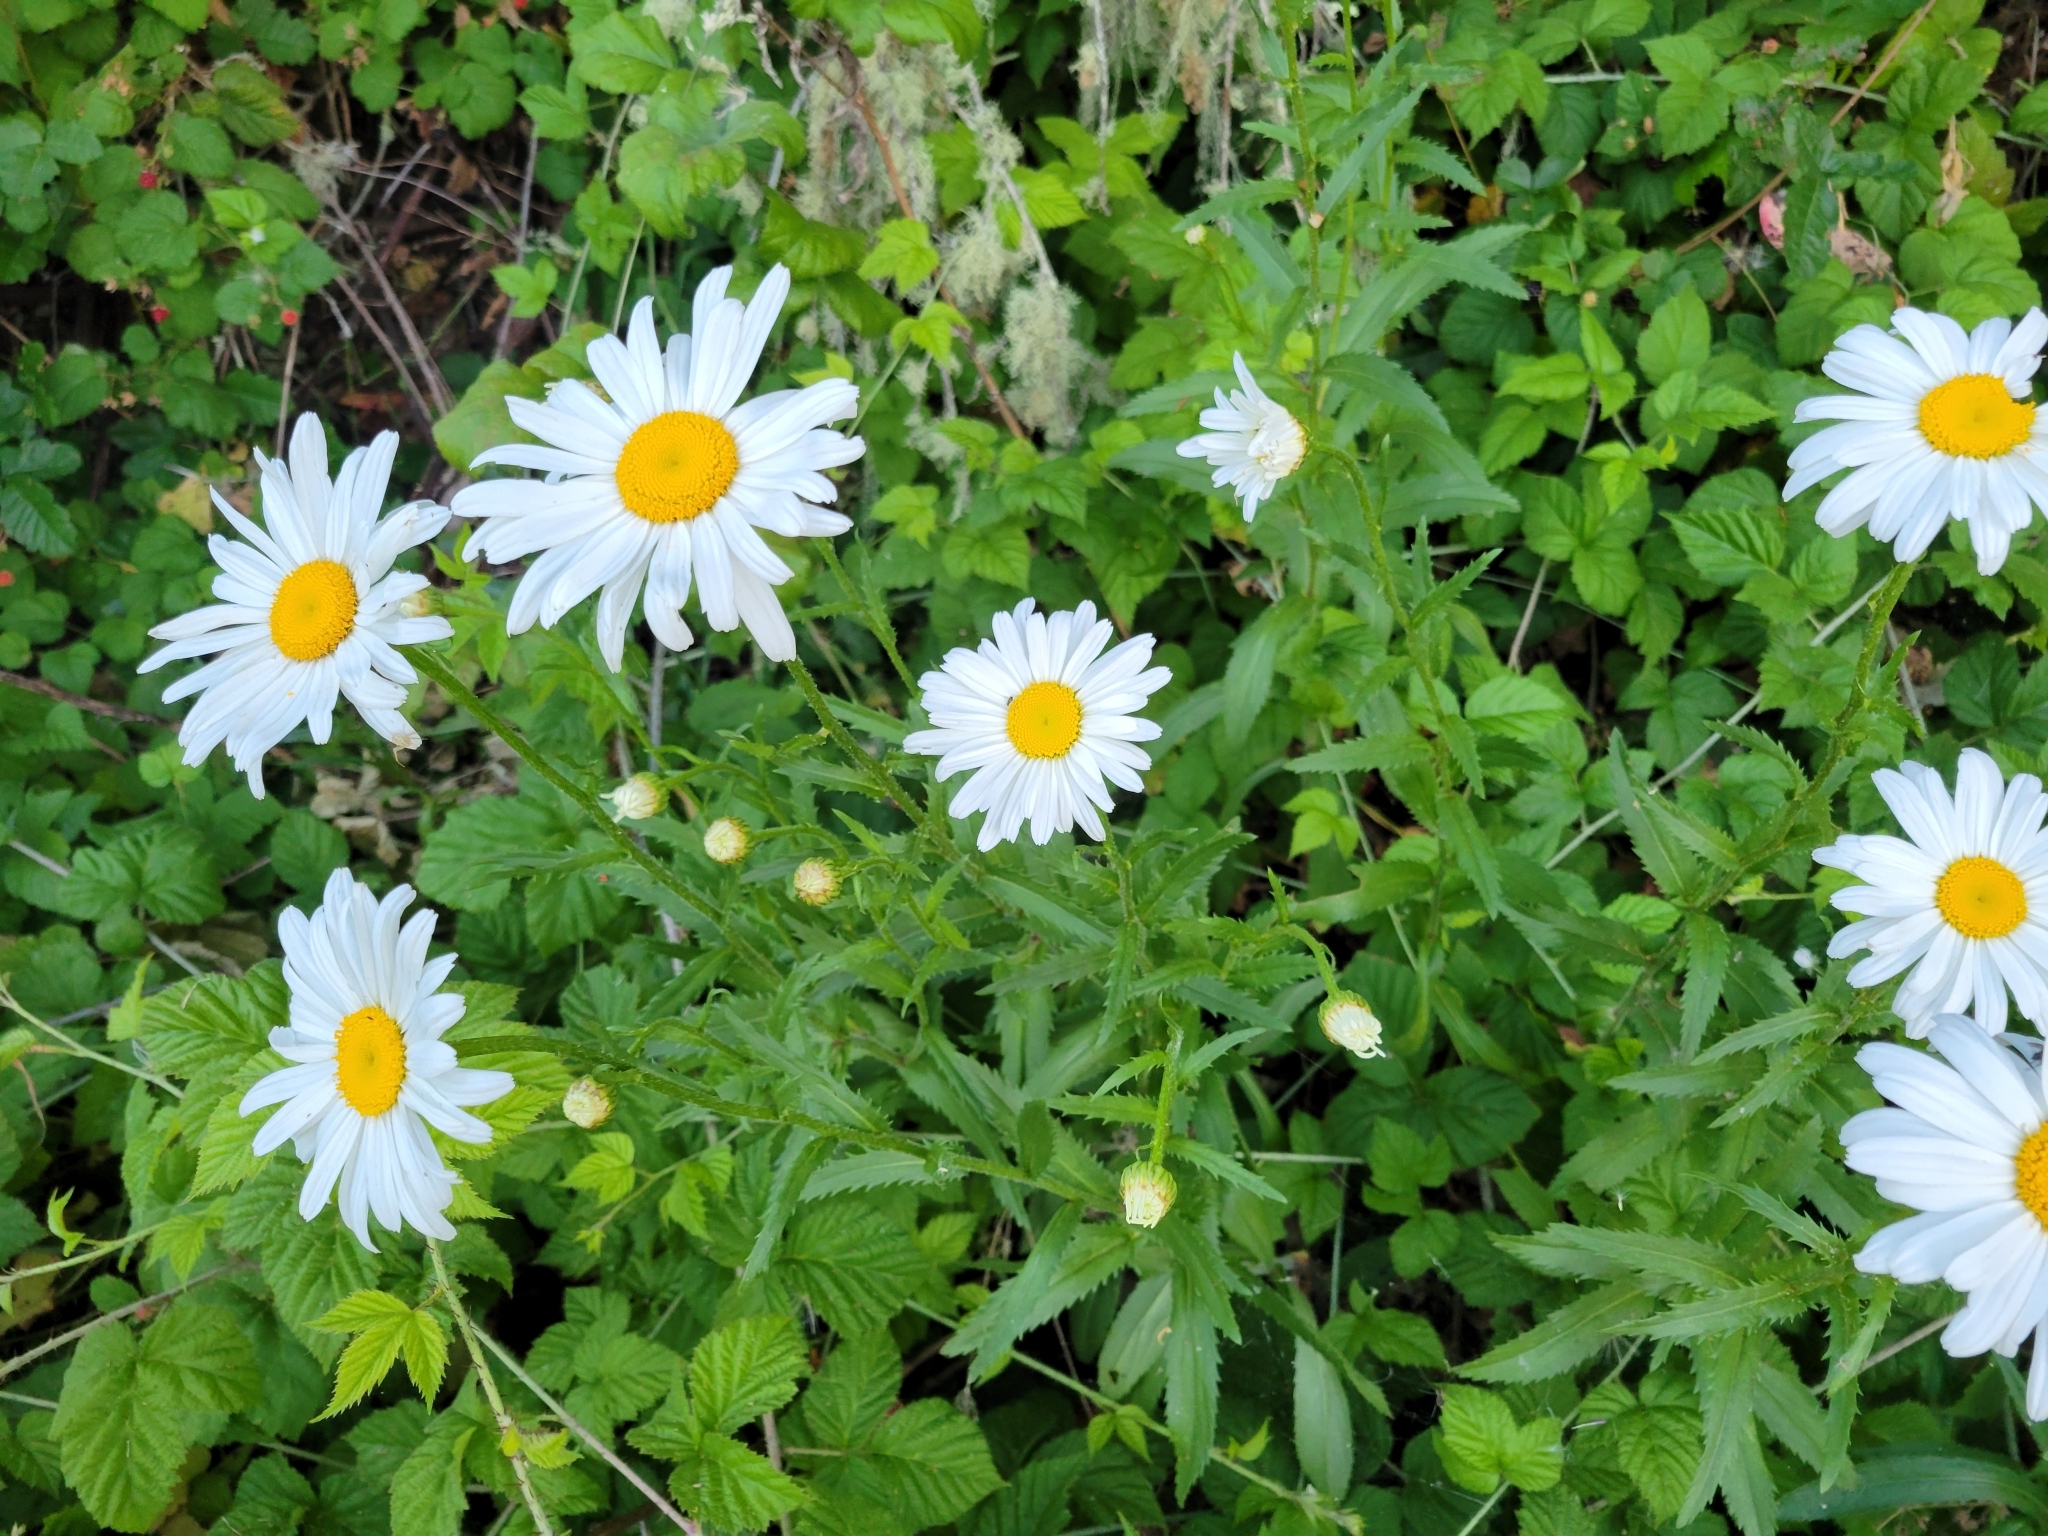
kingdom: Plantae
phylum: Tracheophyta
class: Magnoliopsida
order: Asterales
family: Asteraceae
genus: Leucanthemum
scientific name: Leucanthemum maximum
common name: Max chrysanthemum
